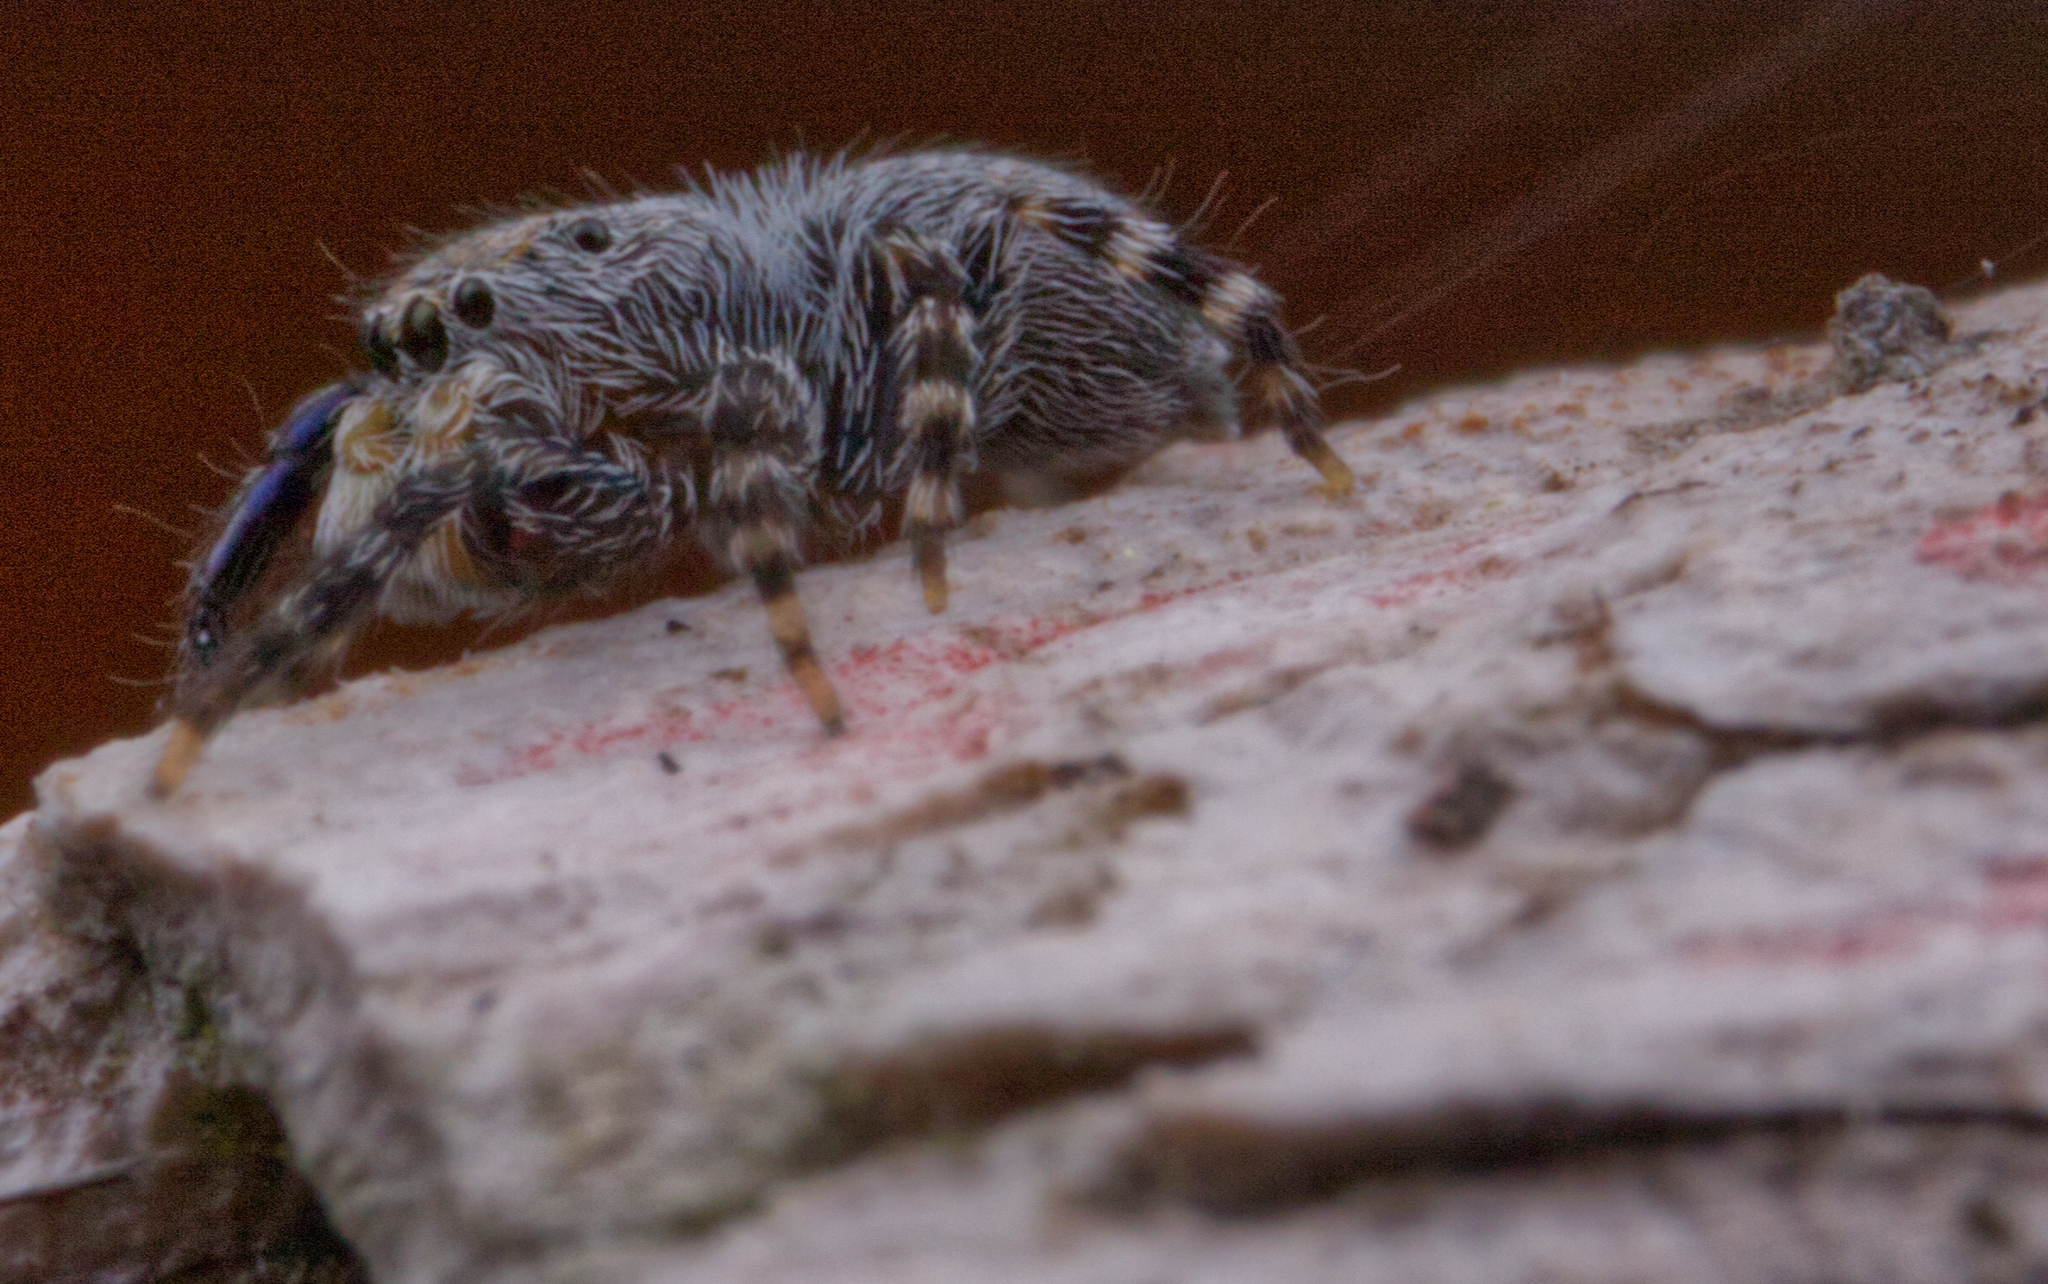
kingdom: Animalia
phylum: Arthropoda
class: Arachnida
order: Araneae
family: Salticidae
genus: Talavera
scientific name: Talavera minuta
